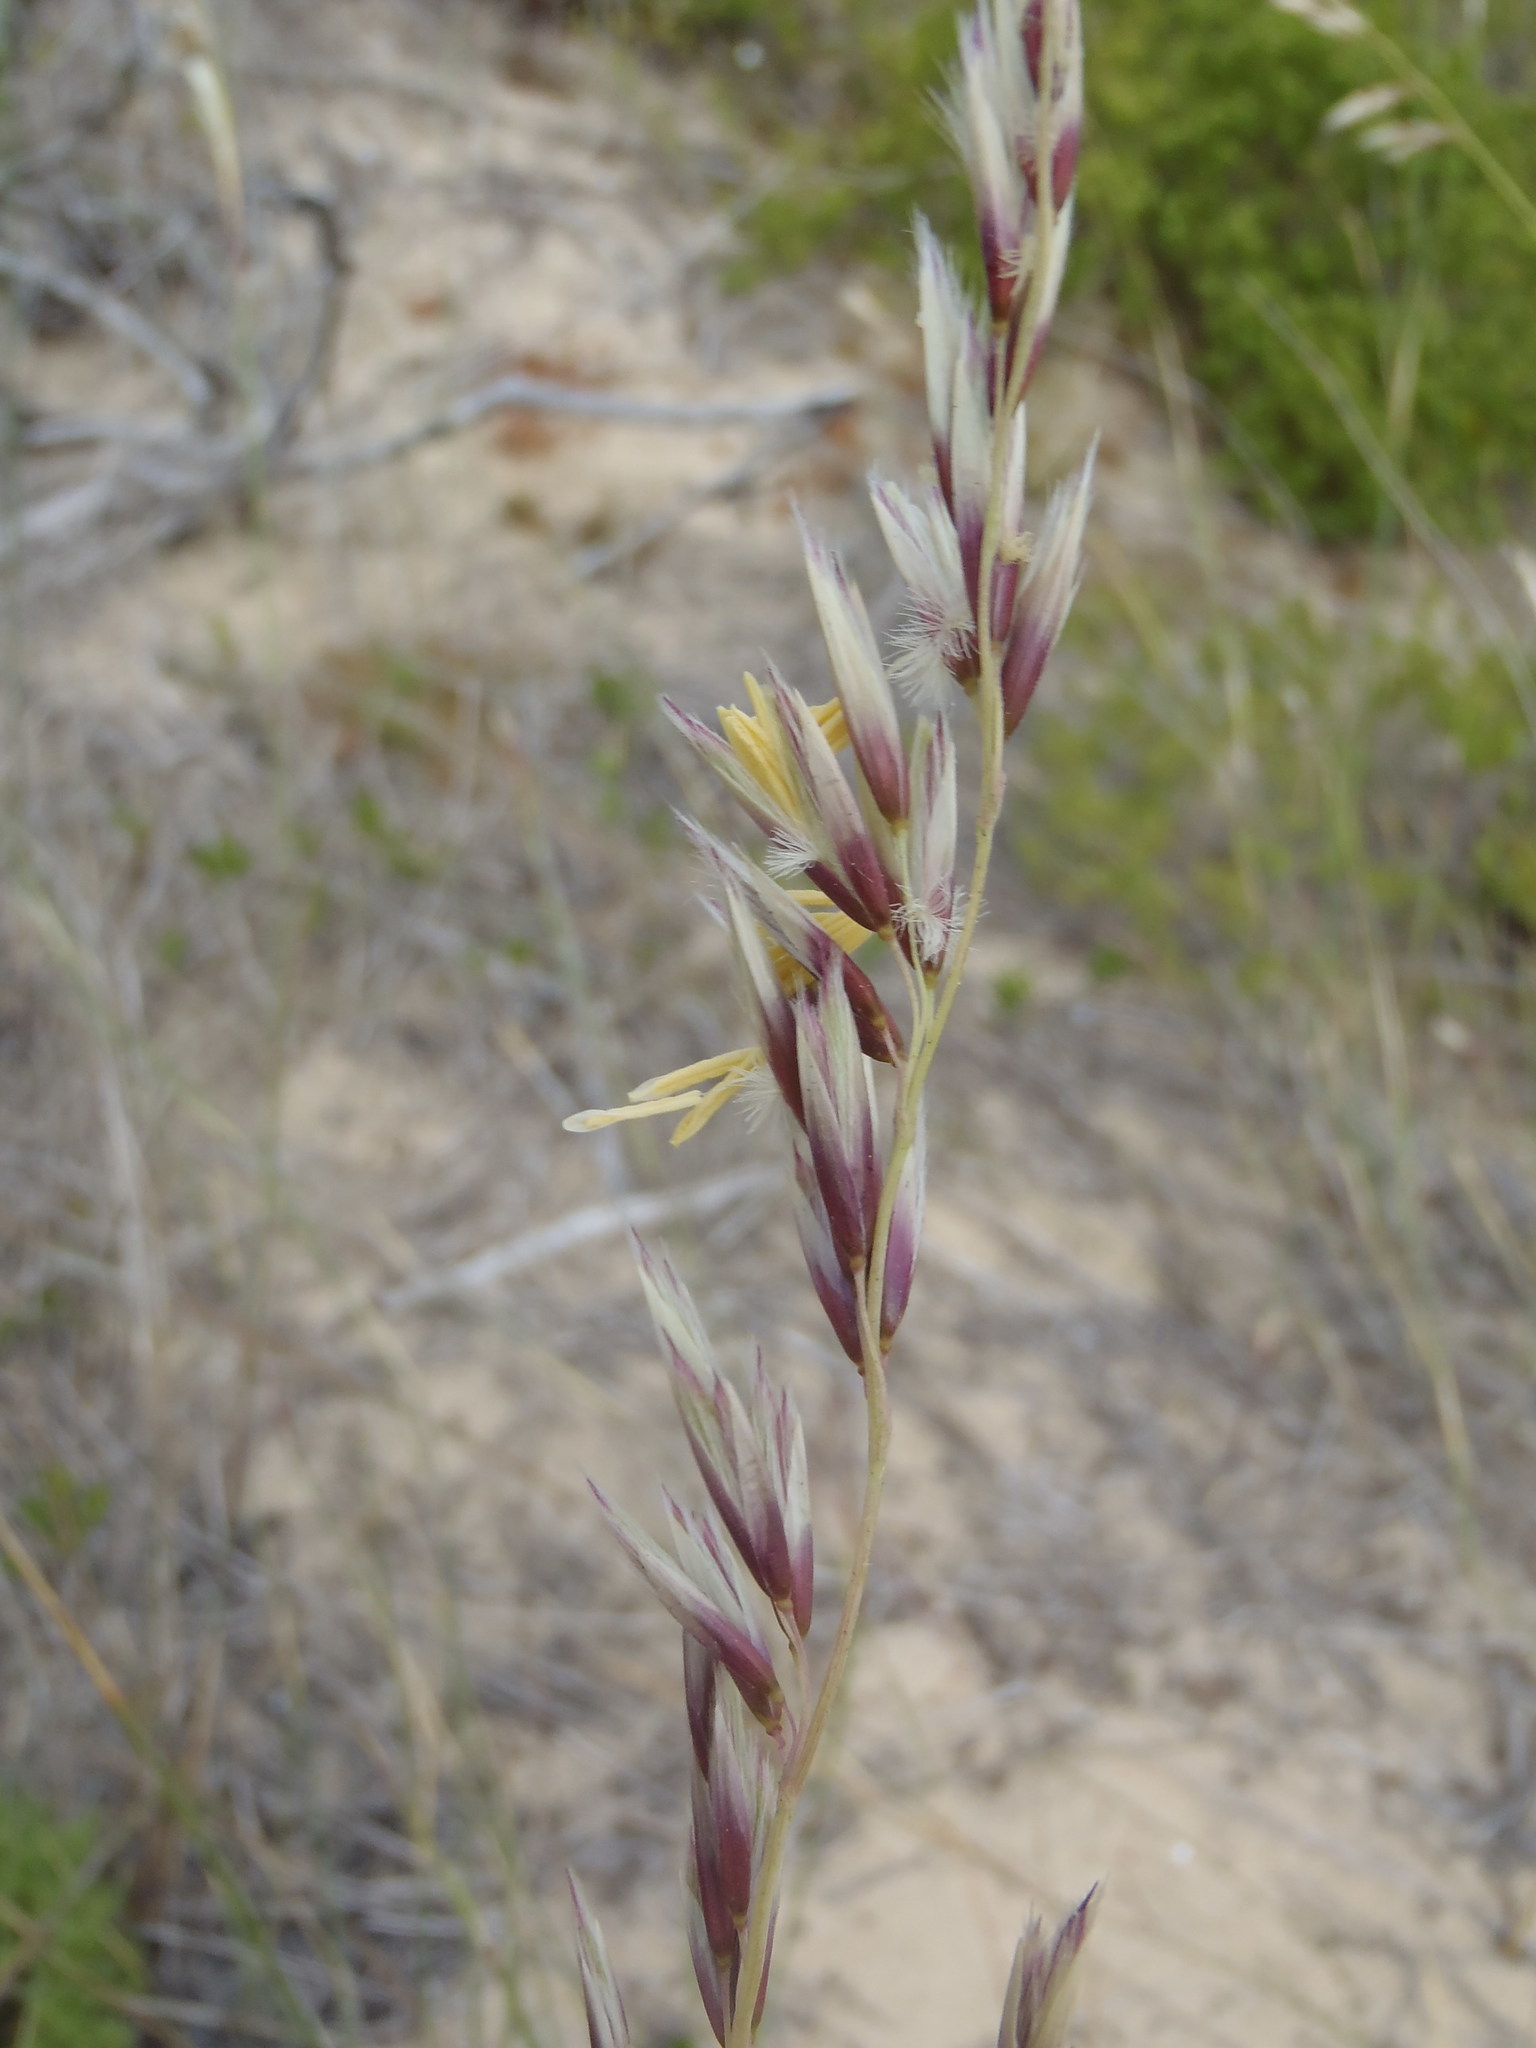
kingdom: Plantae
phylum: Tracheophyta
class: Liliopsida
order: Poales
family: Poaceae
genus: Ehrharta
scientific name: Ehrharta villosa
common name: Pyp grass
